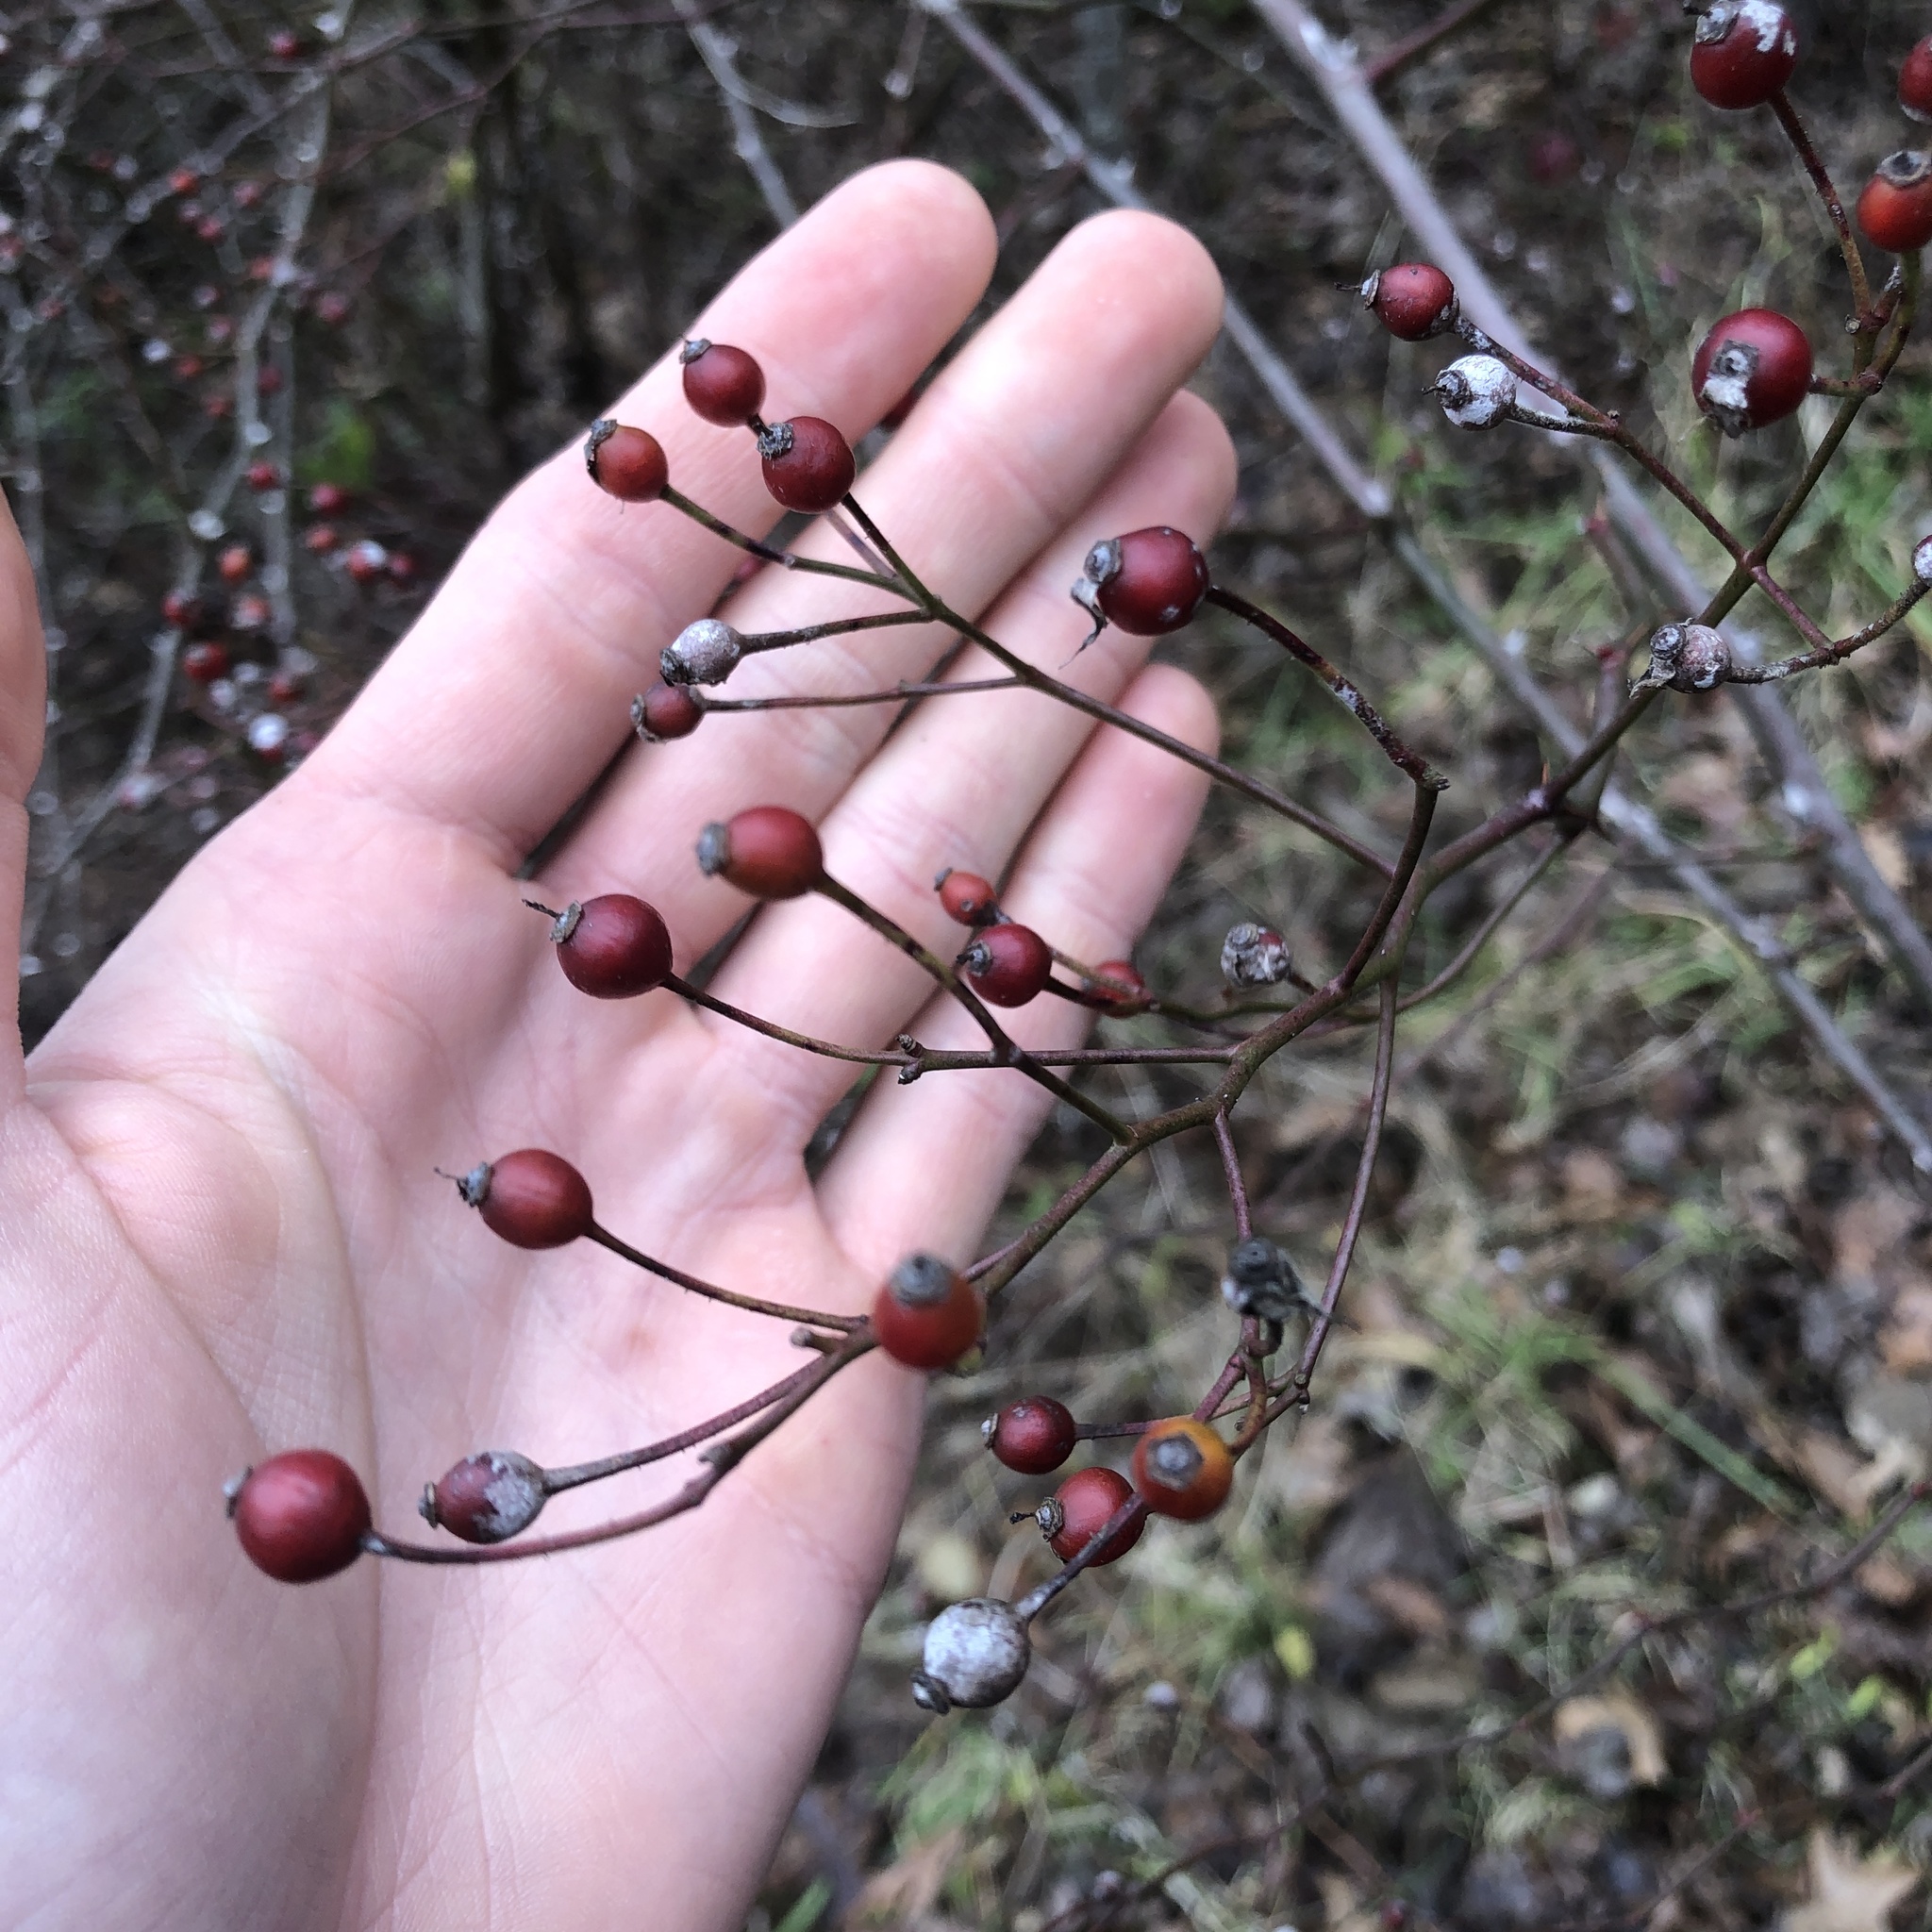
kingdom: Plantae
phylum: Tracheophyta
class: Magnoliopsida
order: Rosales
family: Rosaceae
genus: Rosa
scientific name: Rosa multiflora
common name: Multiflora rose
